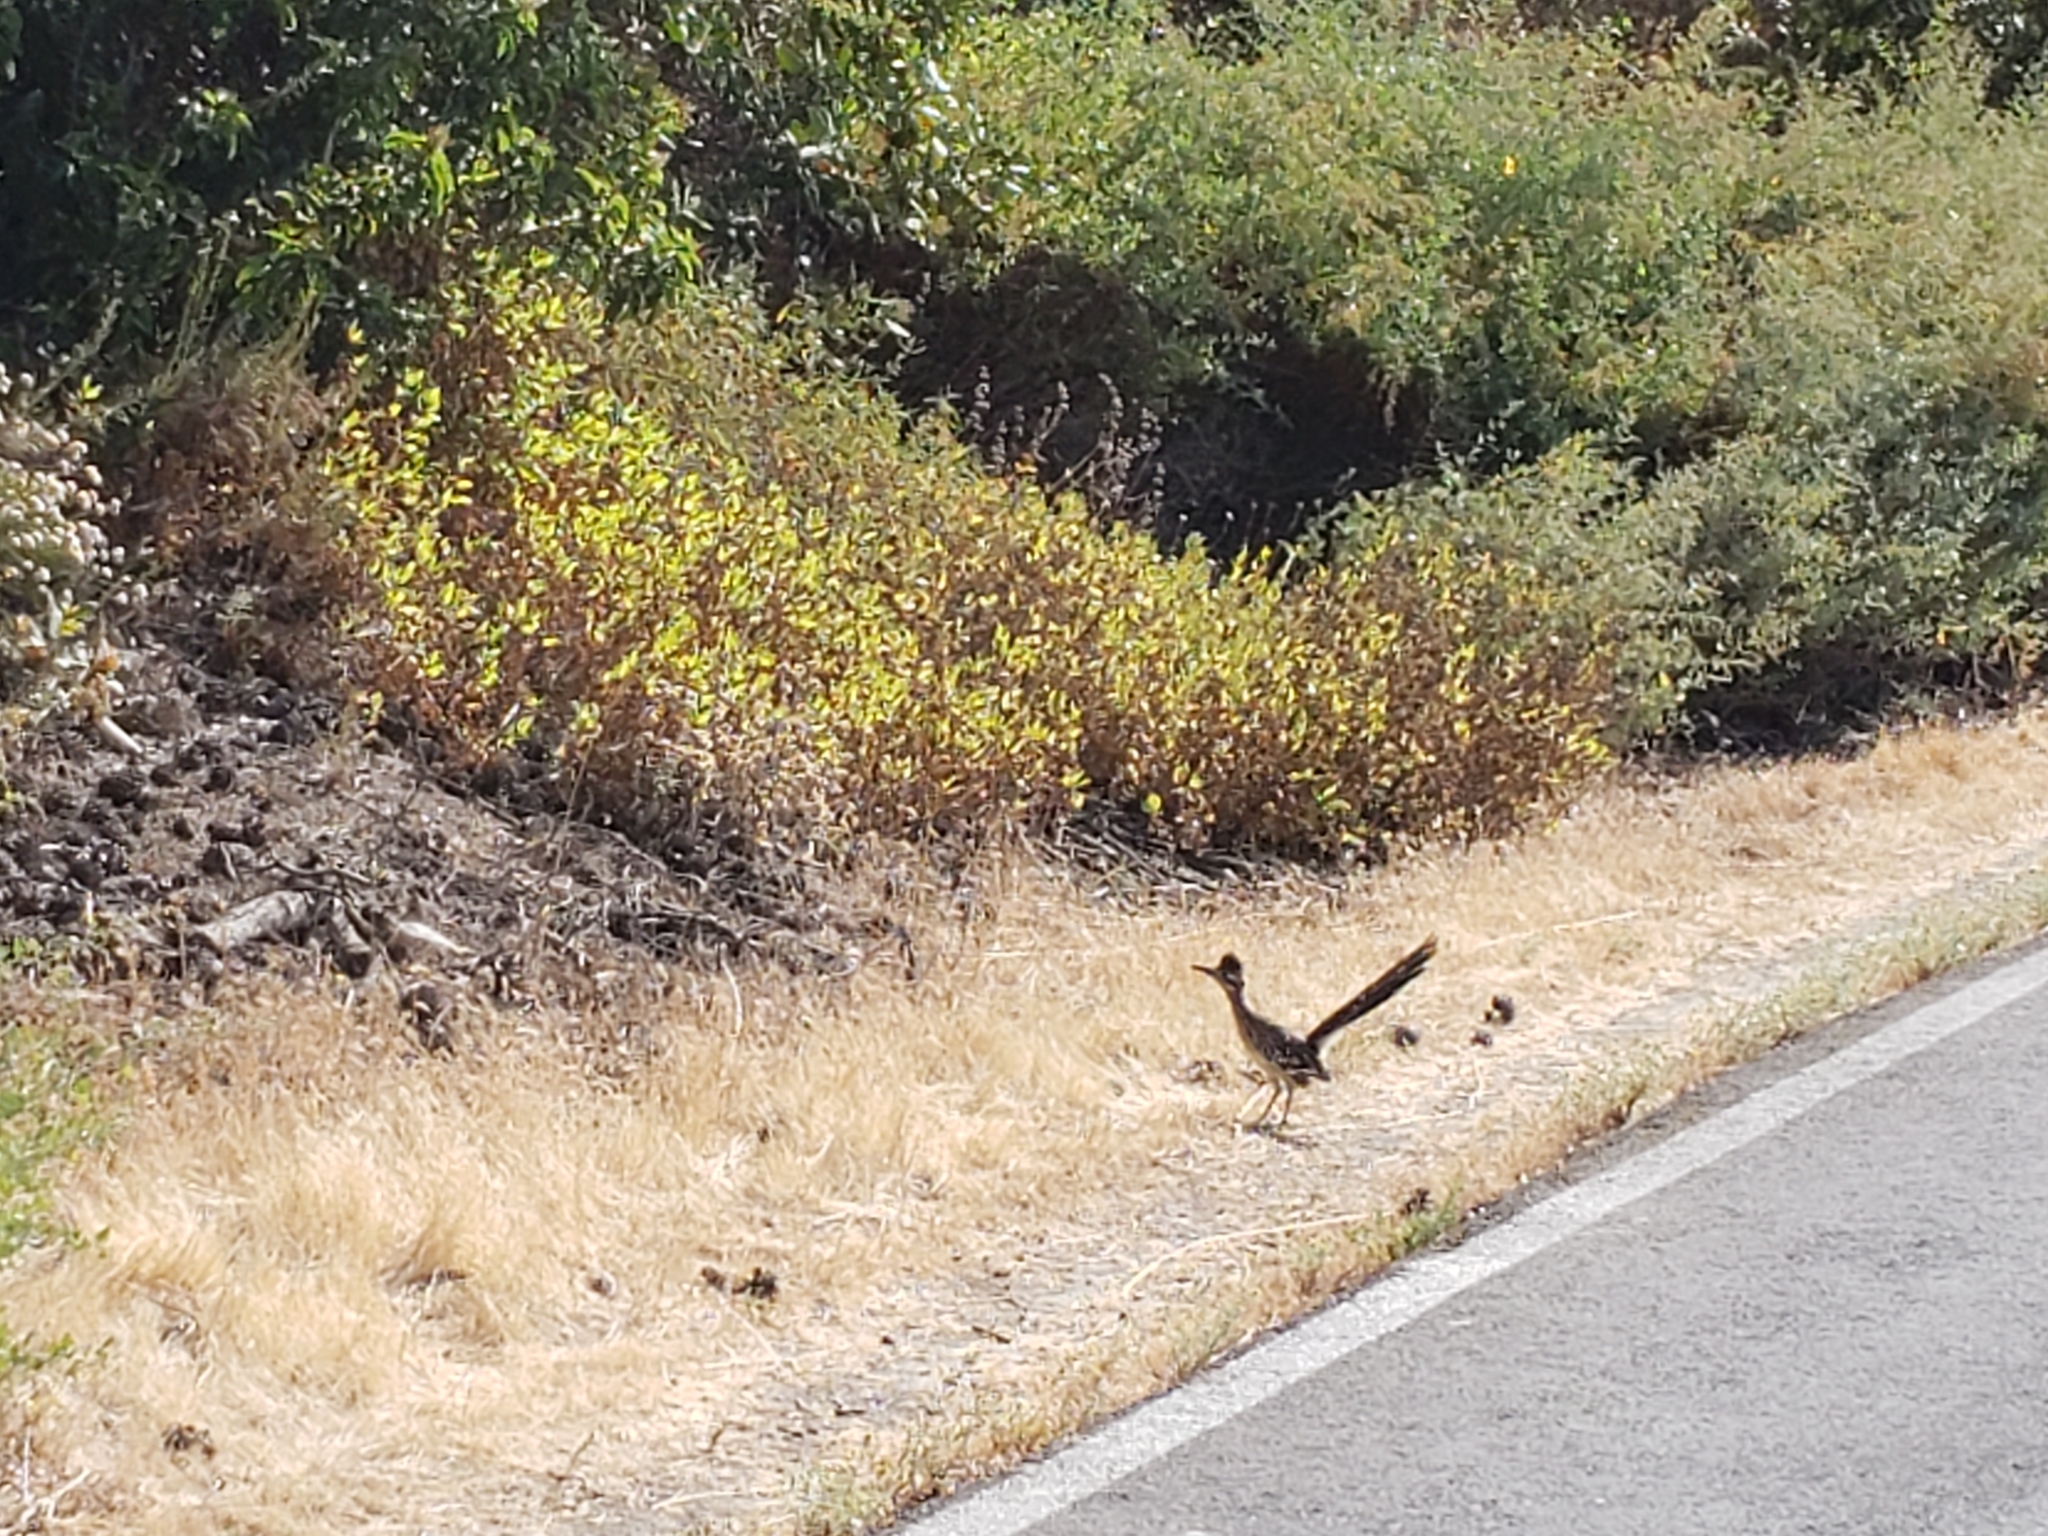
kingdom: Animalia
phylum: Chordata
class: Aves
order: Cuculiformes
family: Cuculidae
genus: Geococcyx
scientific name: Geococcyx californianus
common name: Greater roadrunner
